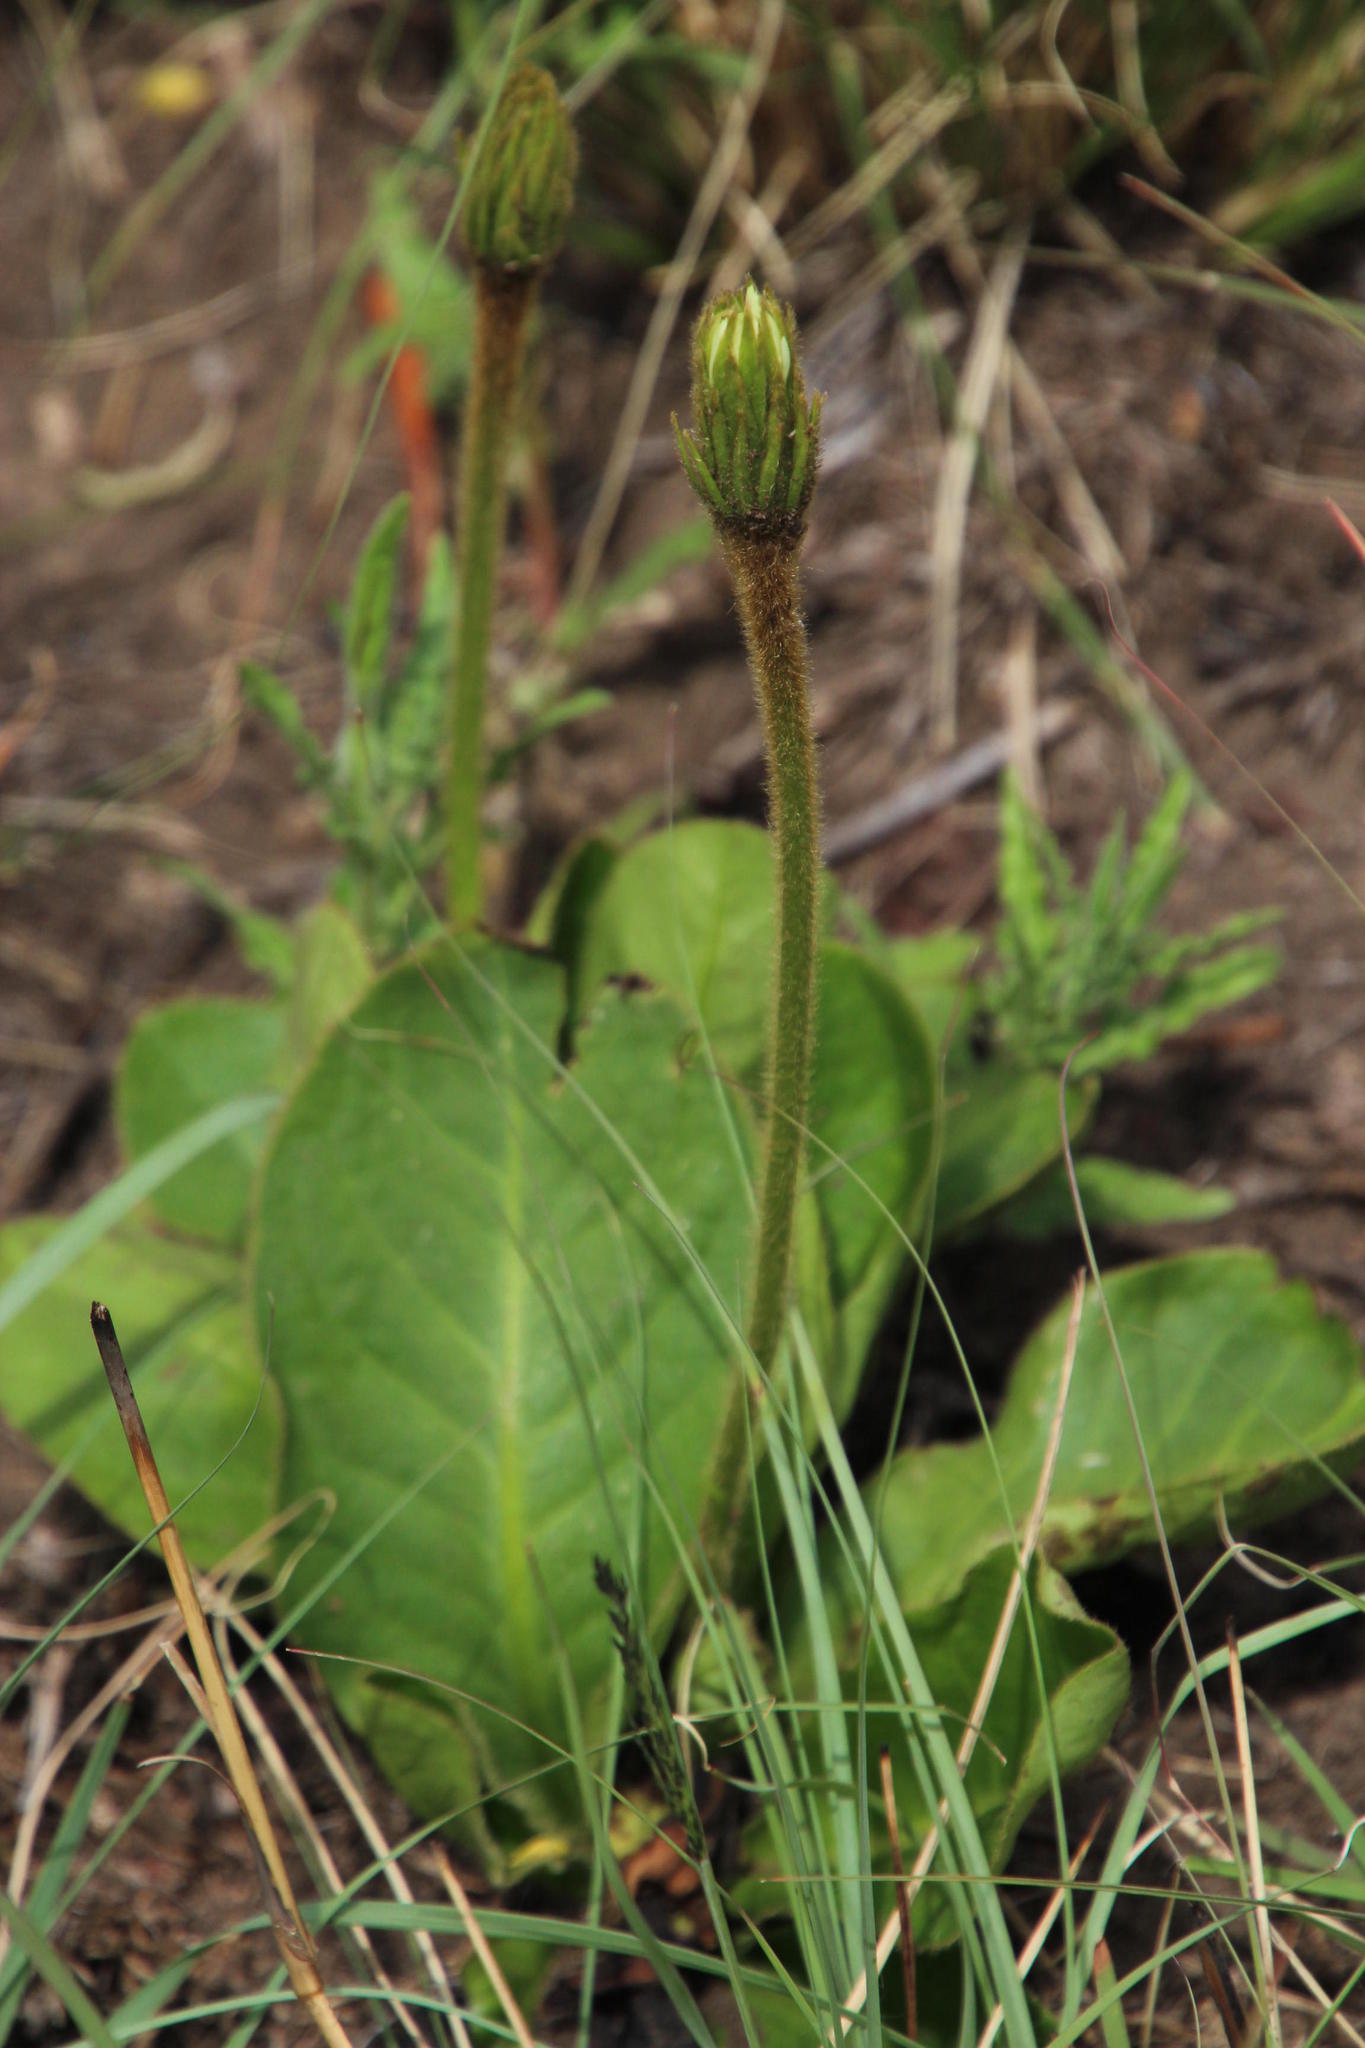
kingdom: Plantae
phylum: Tracheophyta
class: Magnoliopsida
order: Asterales
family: Asteraceae
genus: Piloselloides
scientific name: Piloselloides hirsuta
